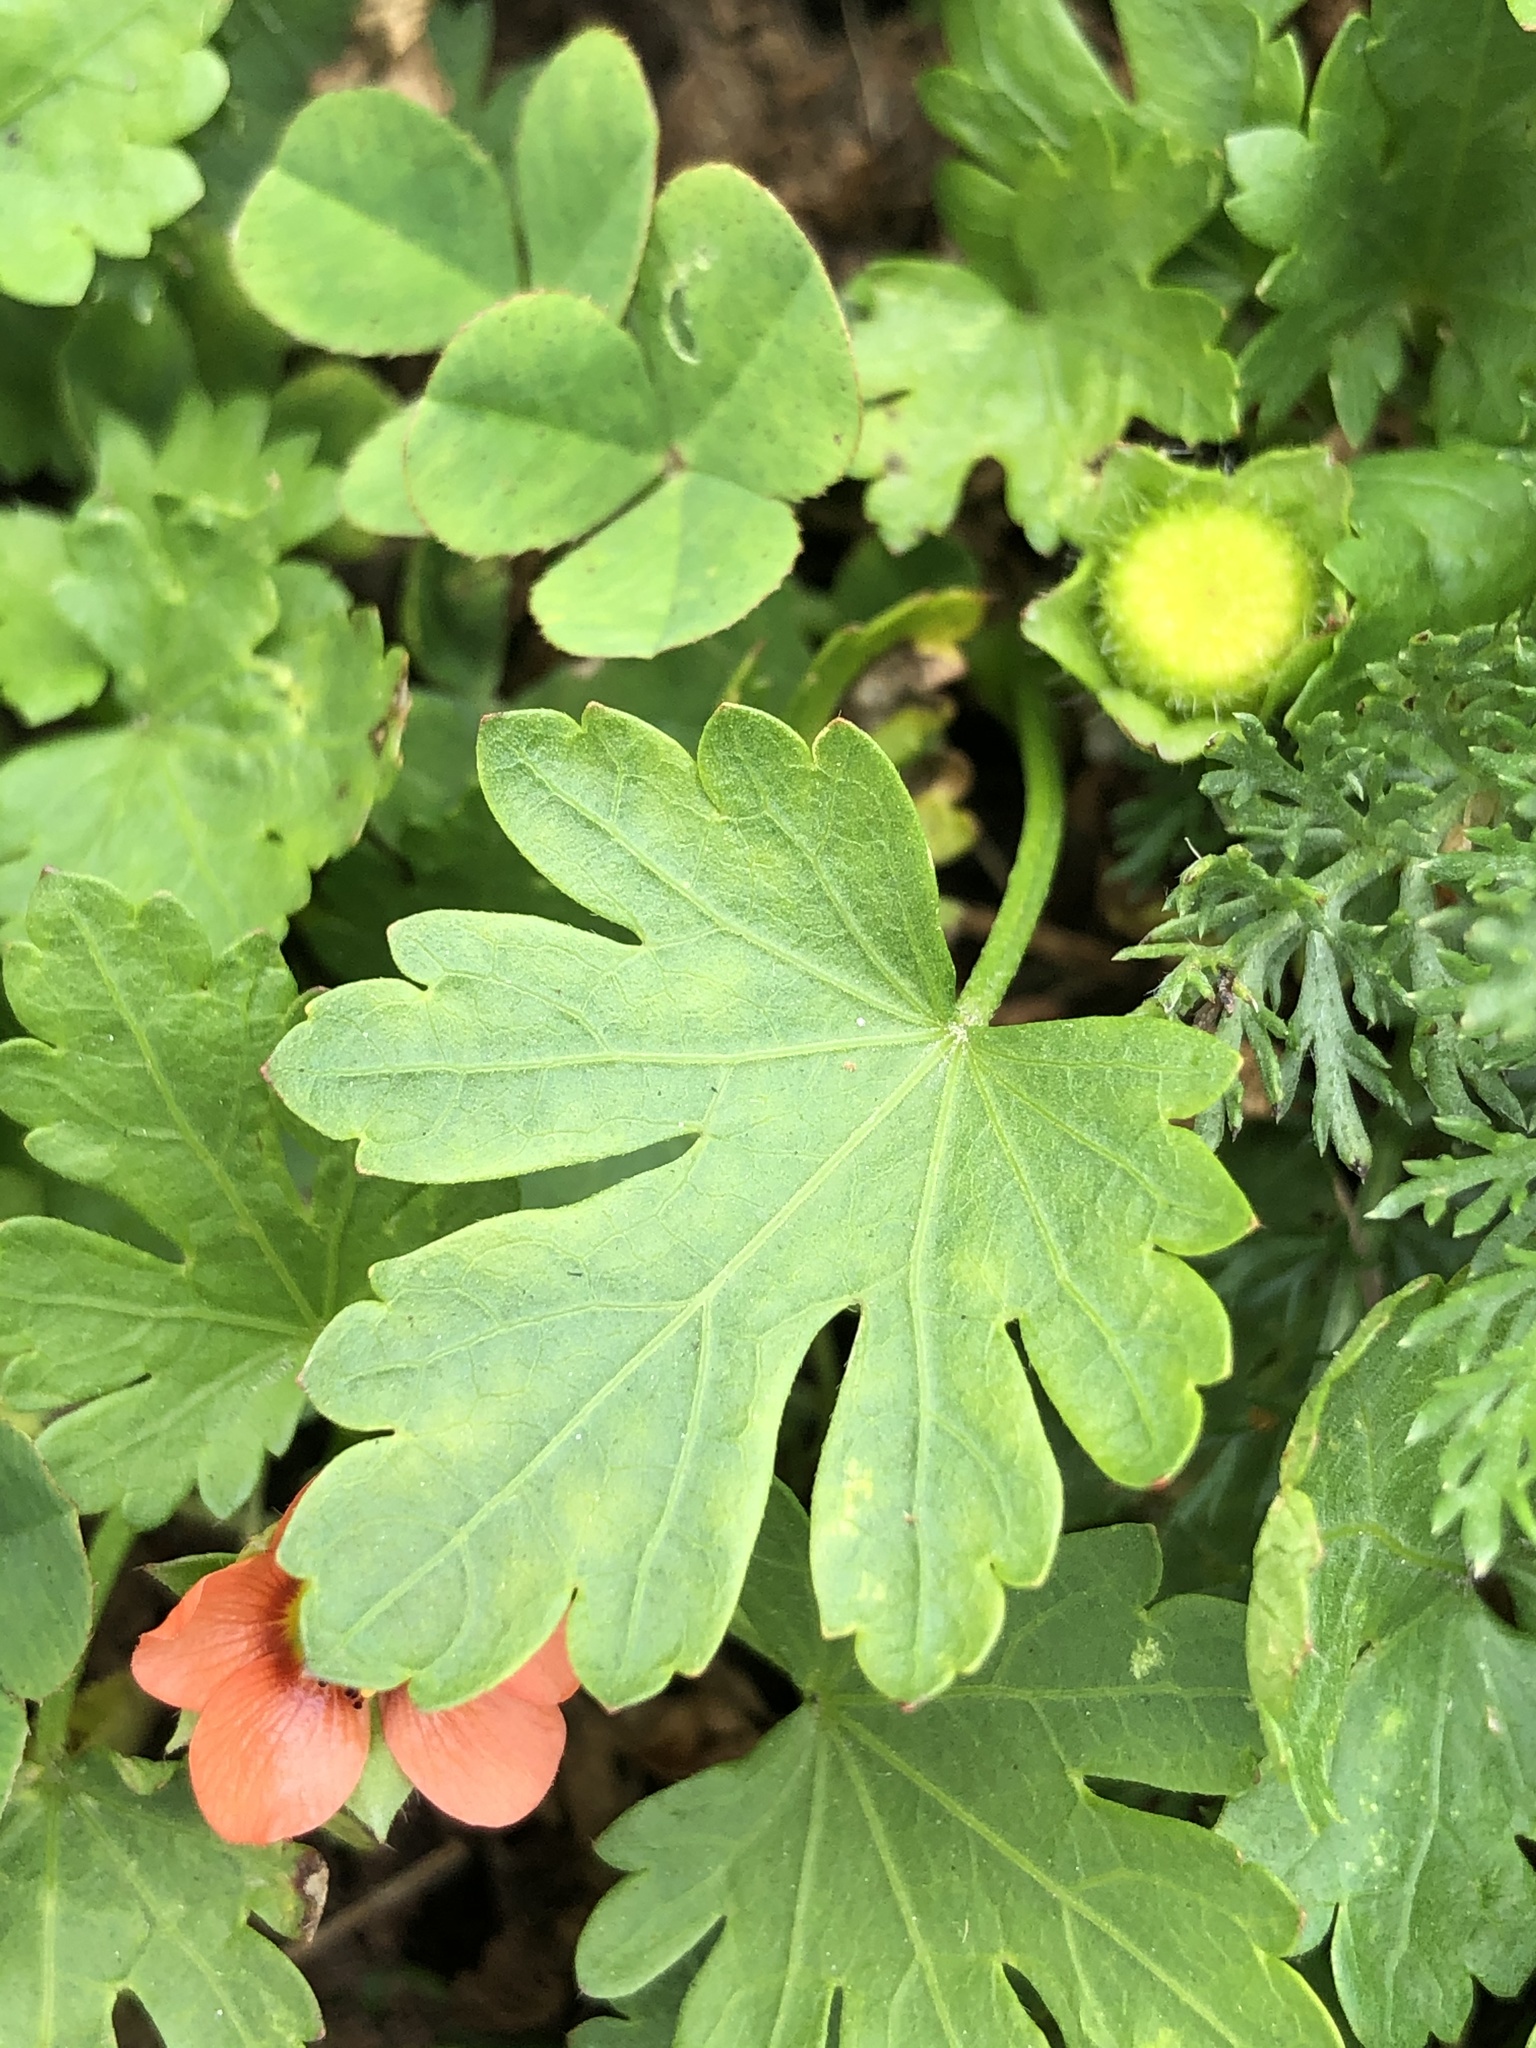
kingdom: Plantae
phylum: Tracheophyta
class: Magnoliopsida
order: Malvales
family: Malvaceae
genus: Modiola
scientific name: Modiola caroliniana
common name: Carolina bristlemallow
